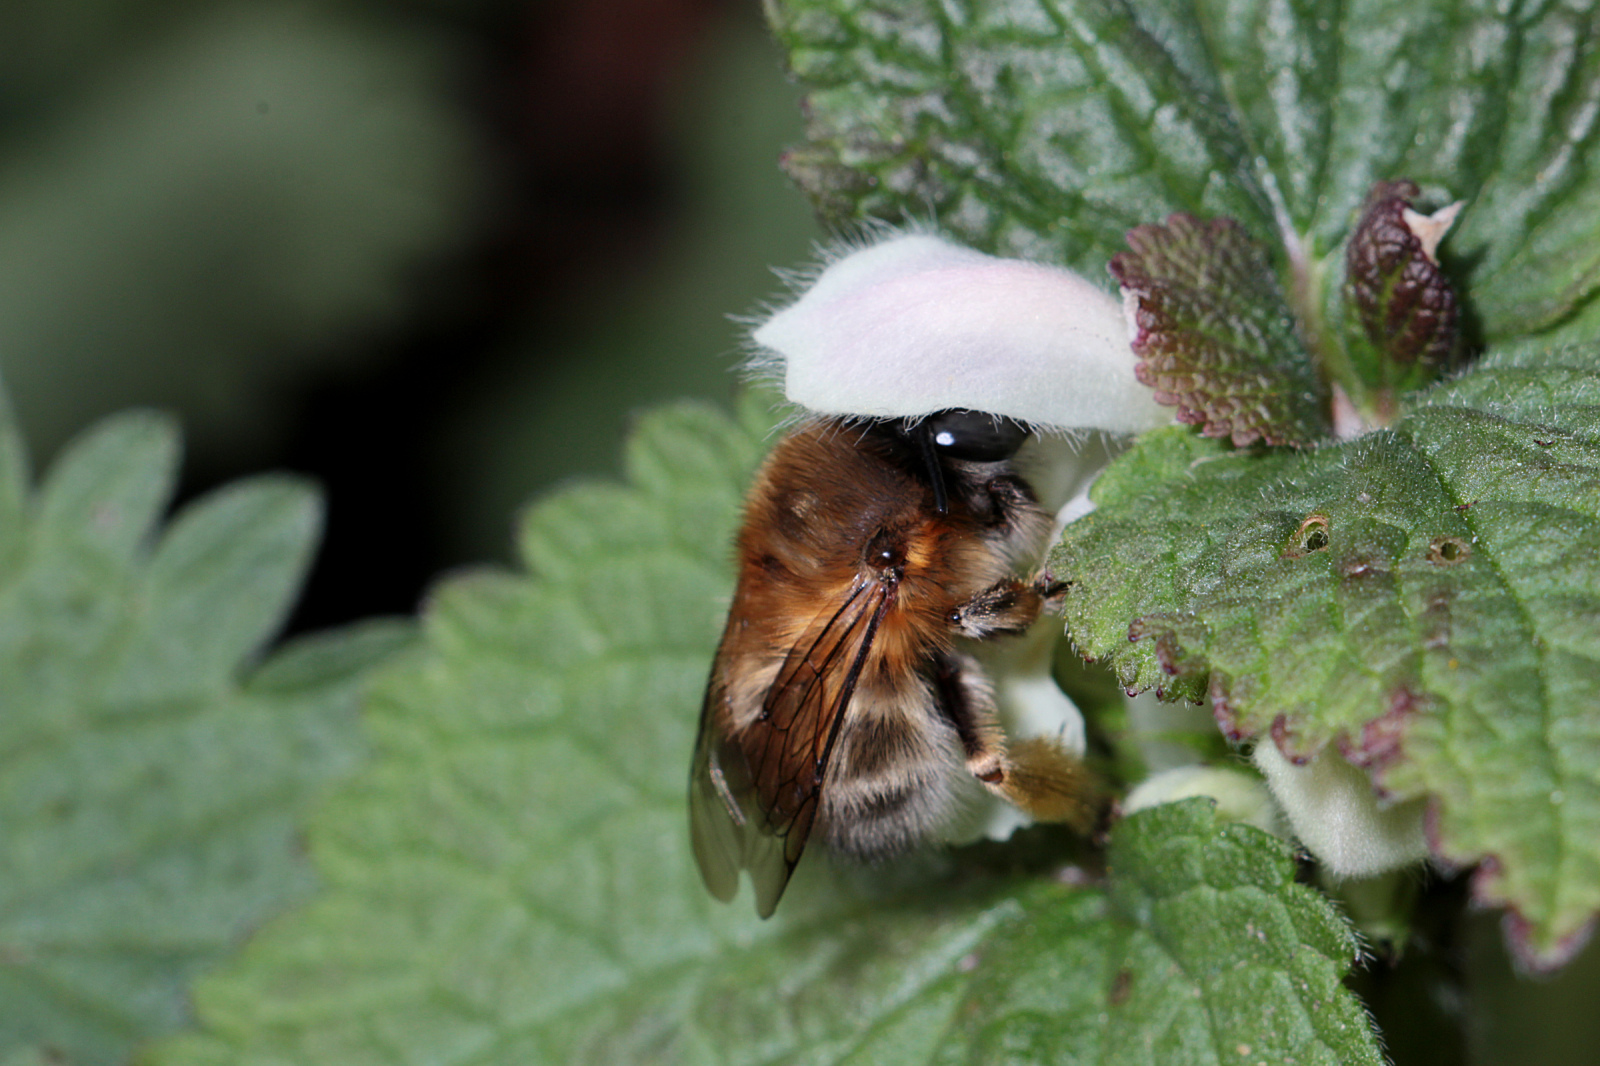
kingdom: Animalia
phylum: Arthropoda
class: Insecta
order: Hymenoptera
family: Apidae
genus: Anthophora
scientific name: Anthophora plumipes
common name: Hairy-footed flower bee
